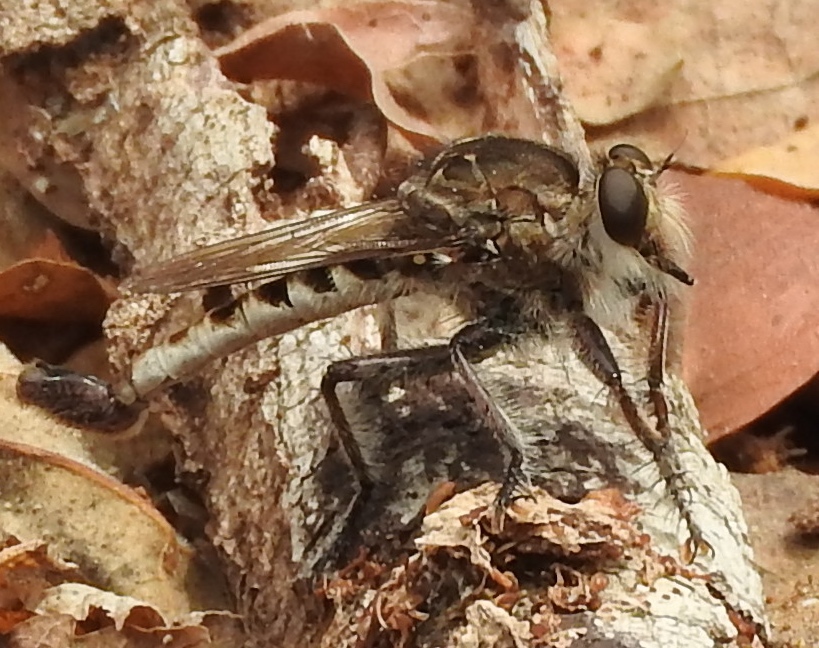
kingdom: Animalia
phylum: Arthropoda
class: Insecta
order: Diptera
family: Asilidae
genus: Efferia
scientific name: Efferia
